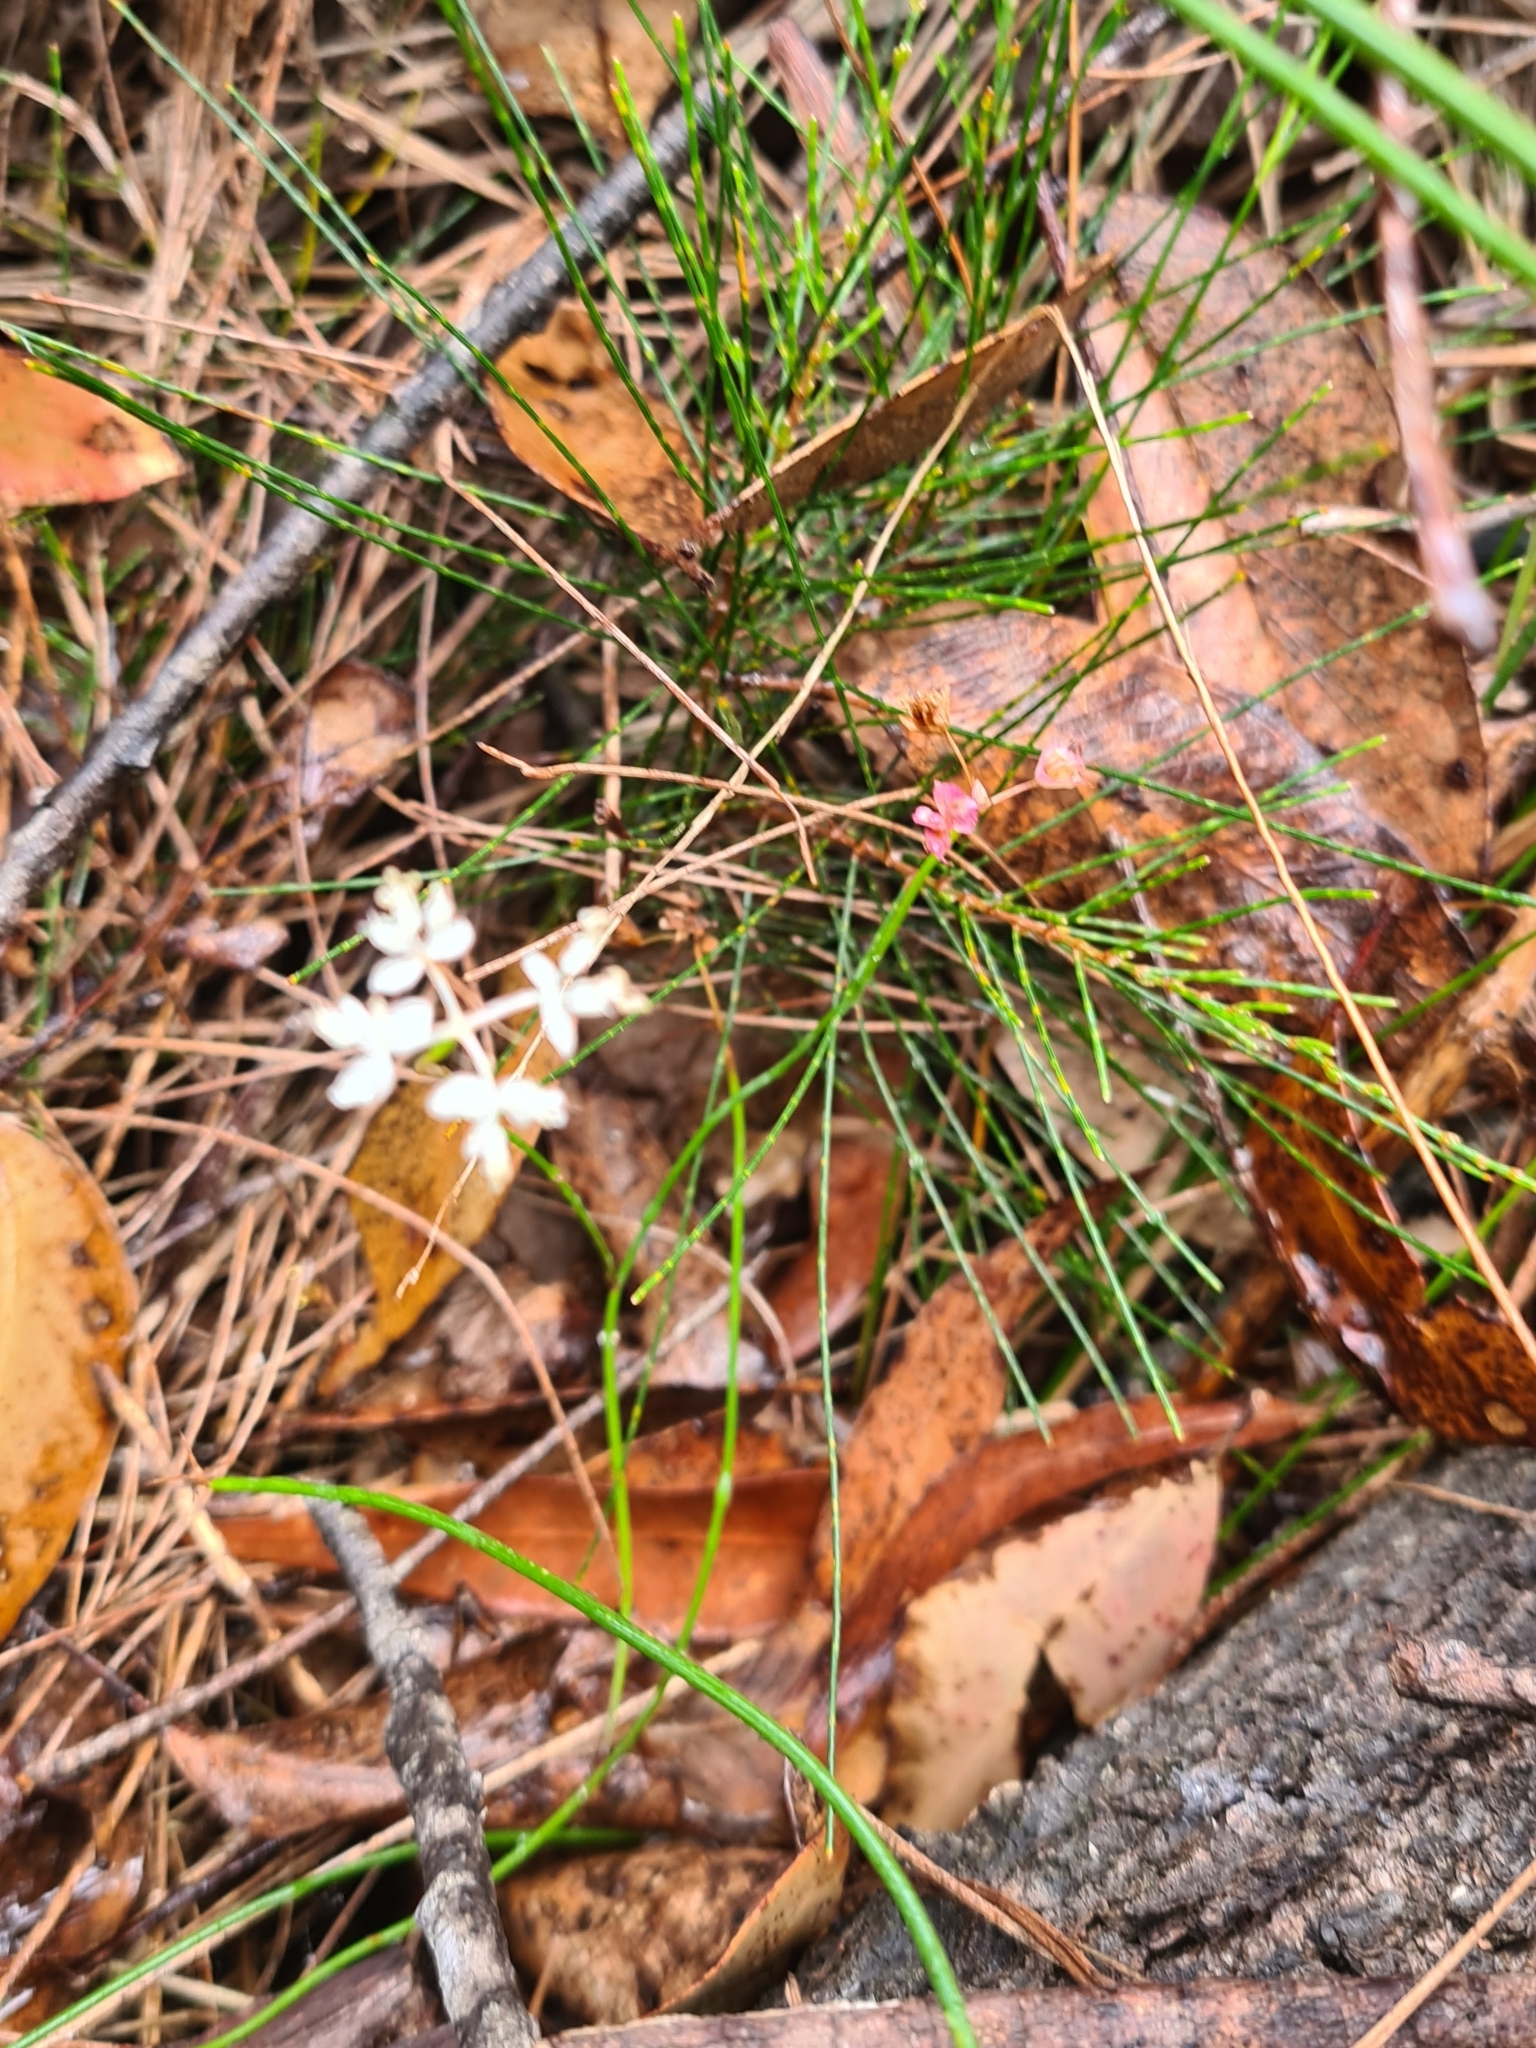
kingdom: Plantae
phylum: Tracheophyta
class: Magnoliopsida
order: Apiales
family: Apiaceae
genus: Xanthosia
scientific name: Xanthosia atkinsoniana
